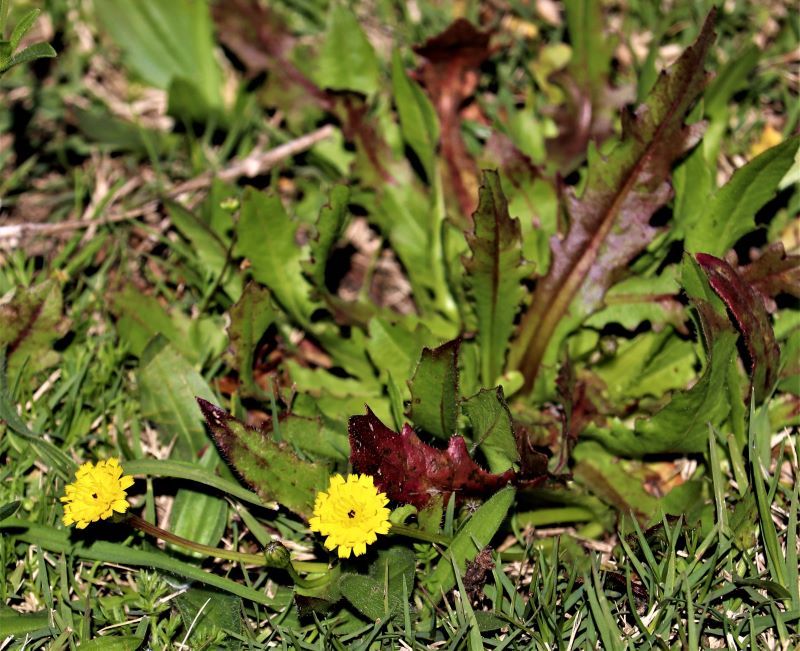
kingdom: Plantae
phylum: Tracheophyta
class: Magnoliopsida
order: Asterales
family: Asteraceae
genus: Hedypnois
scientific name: Hedypnois rhagadioloides
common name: Cretan weed
